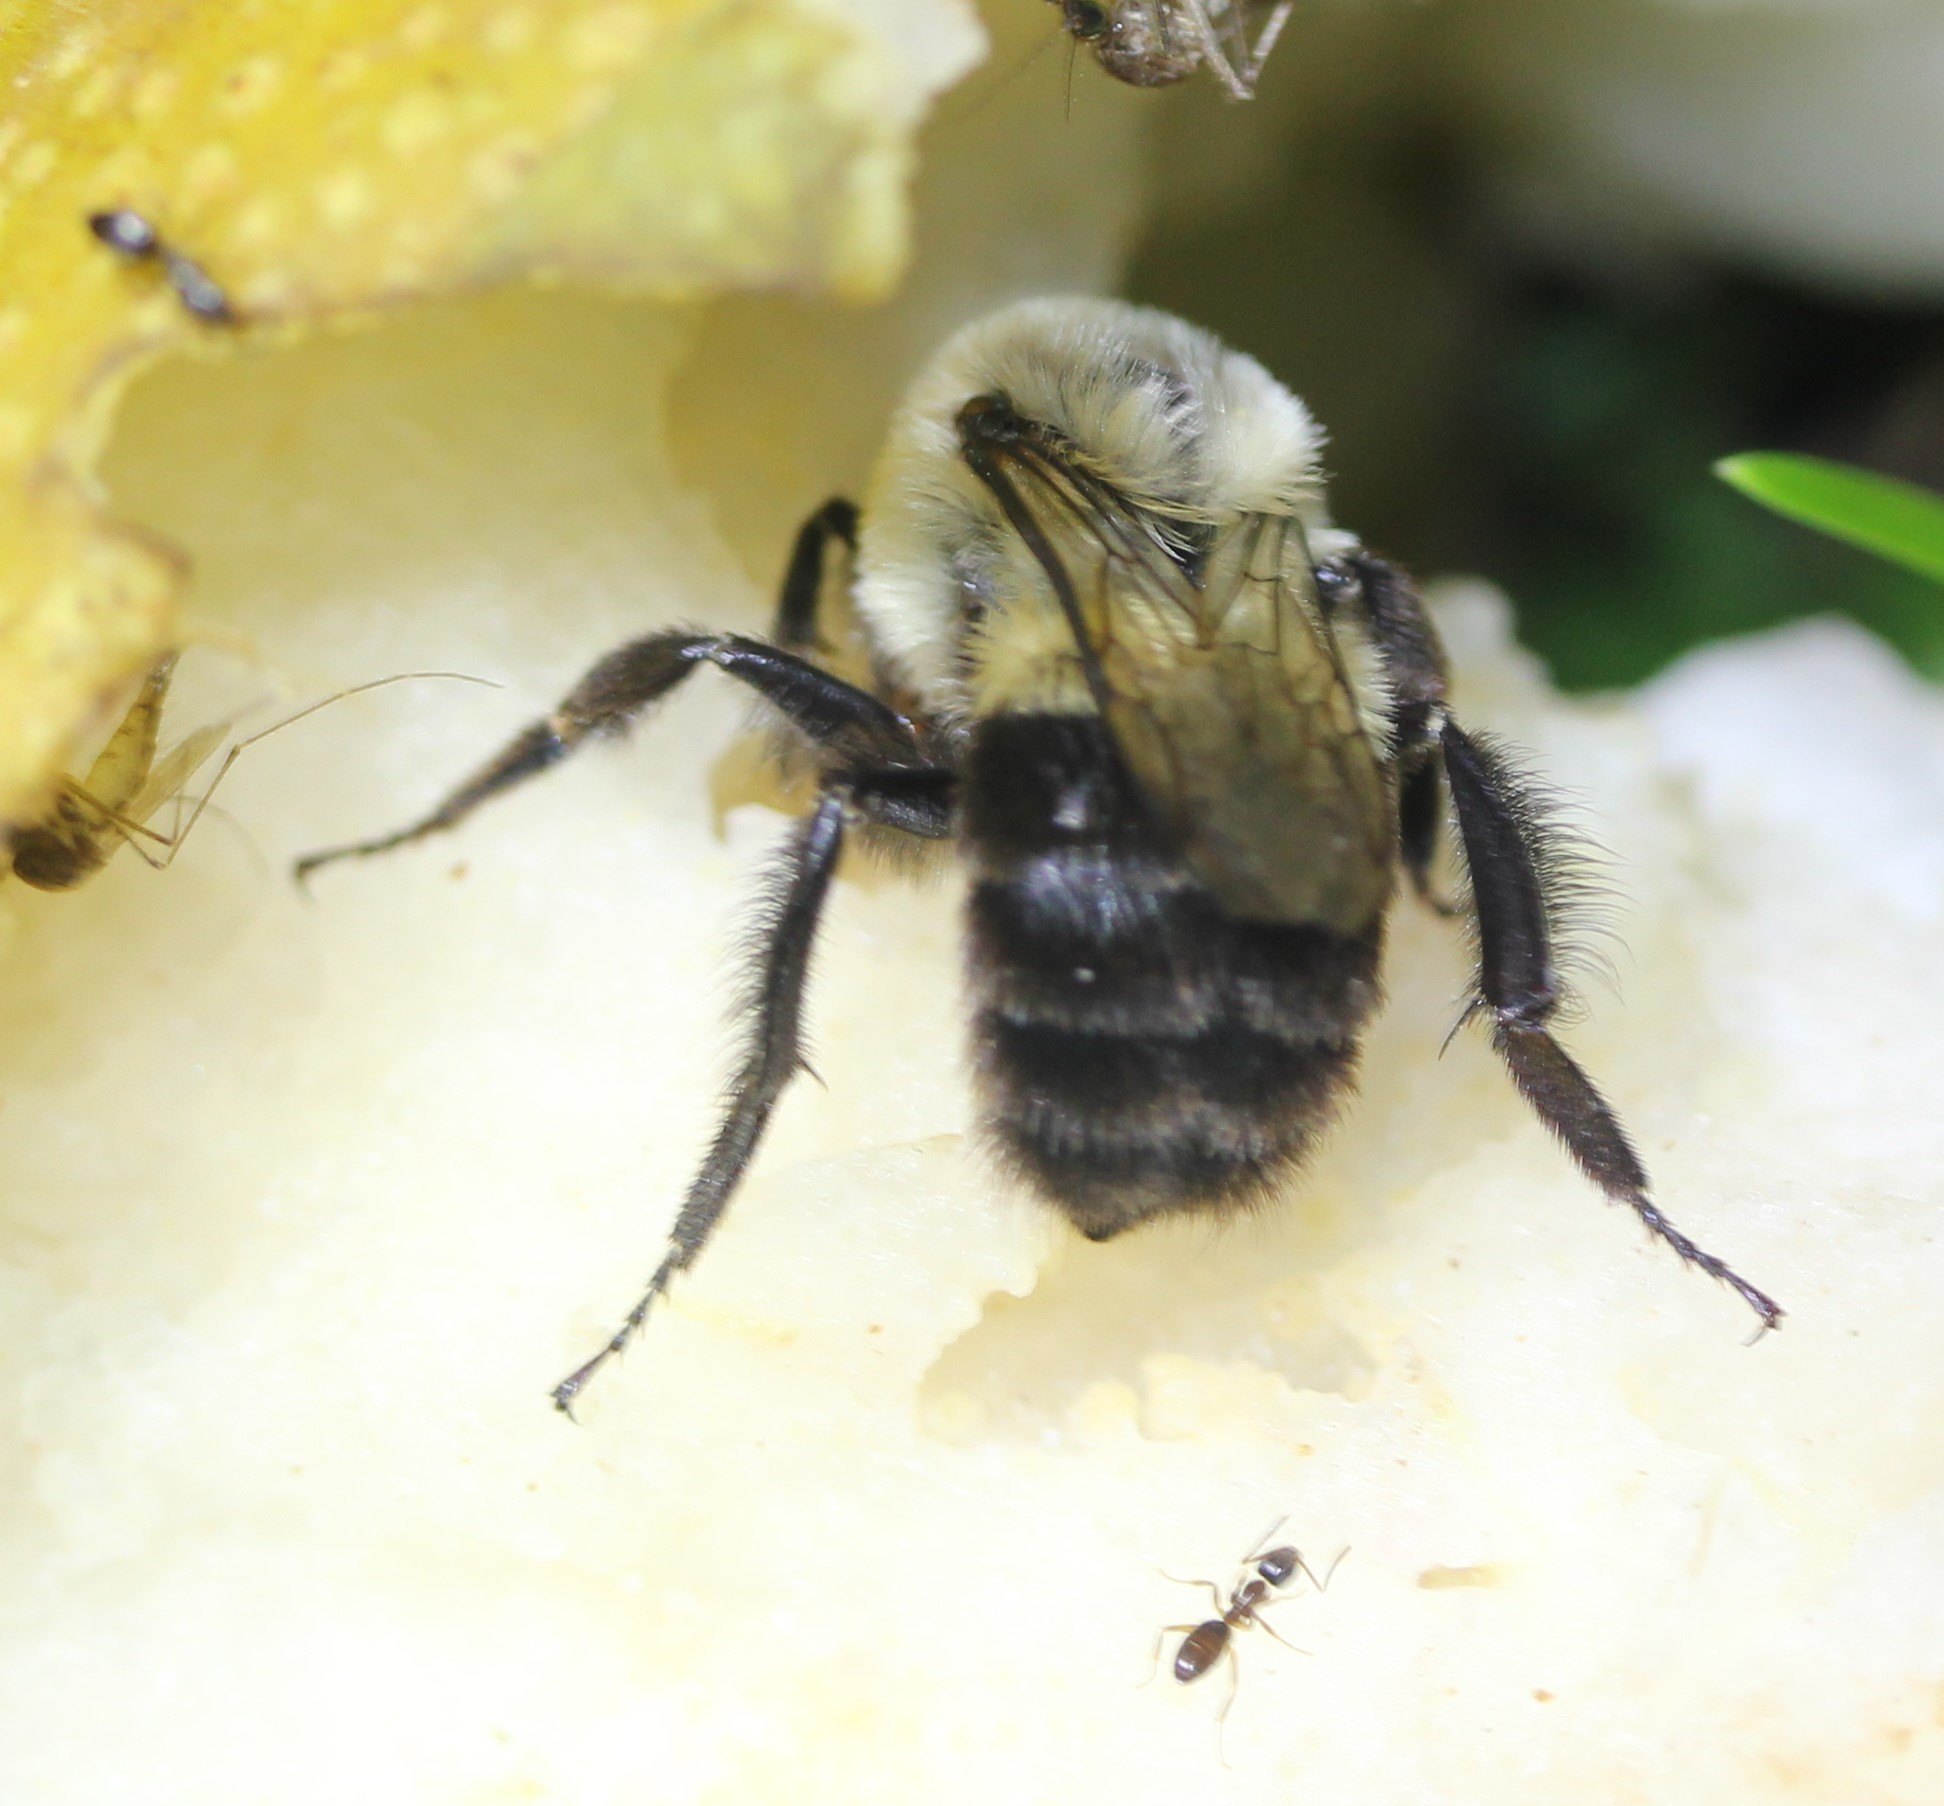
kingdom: Animalia
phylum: Arthropoda
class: Insecta
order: Hymenoptera
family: Apidae
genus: Bombus
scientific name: Bombus impatiens
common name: Common eastern bumble bee
